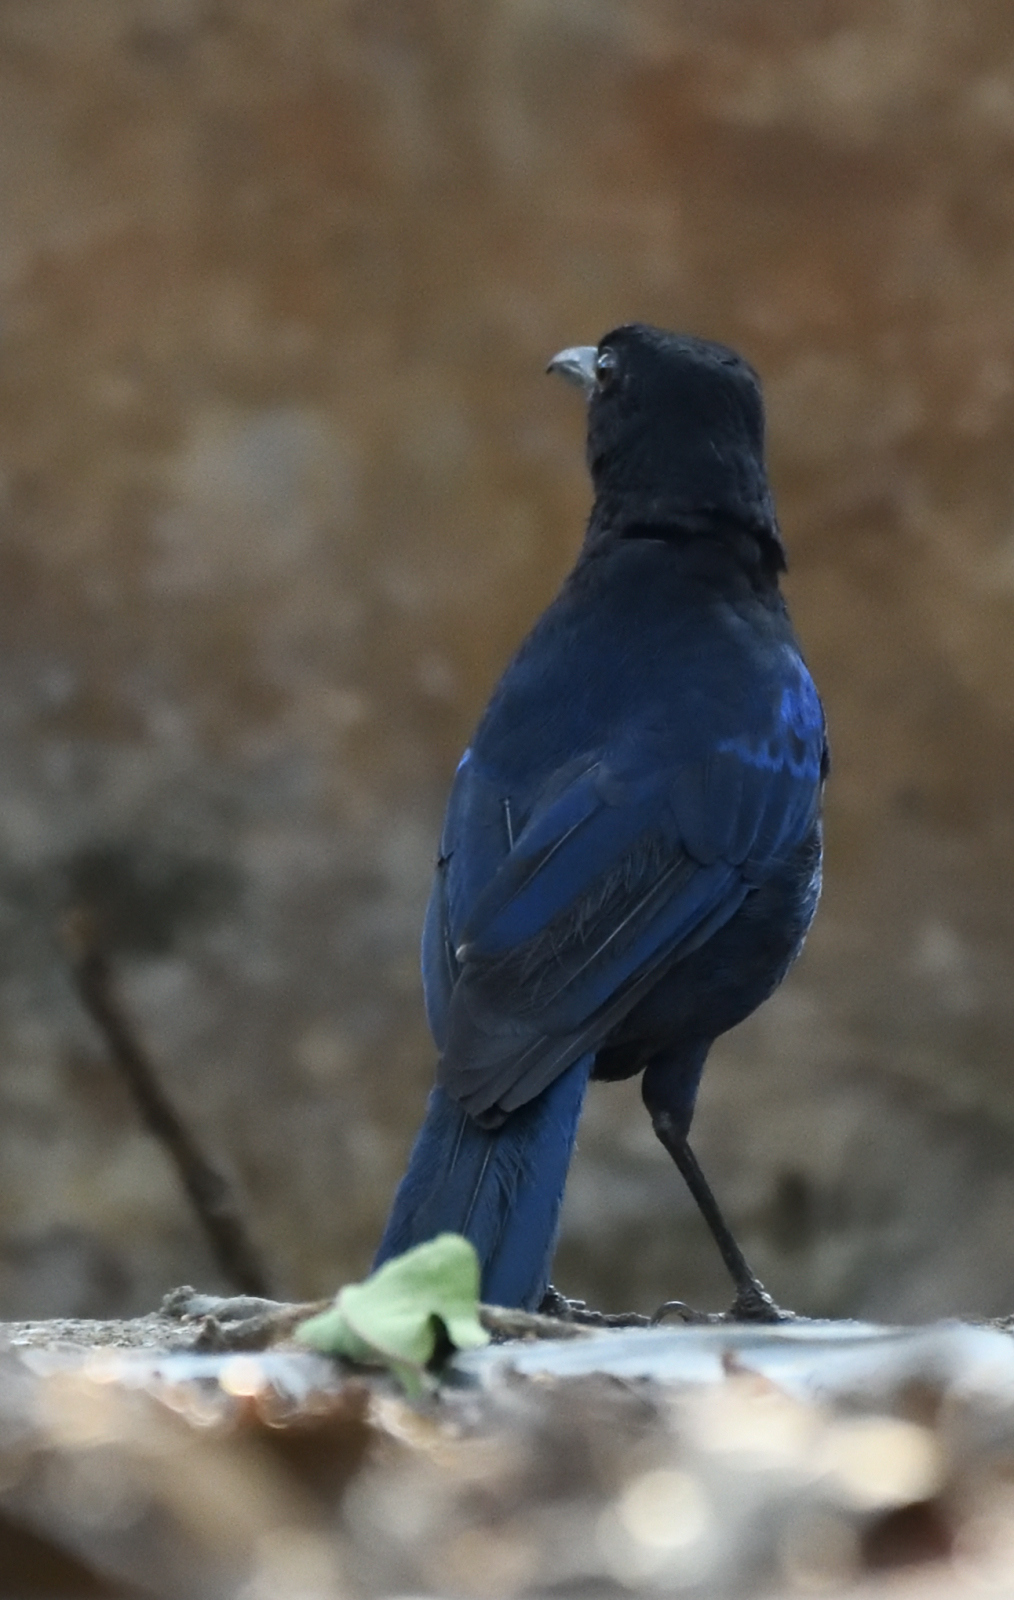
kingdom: Animalia
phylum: Chordata
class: Aves
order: Passeriformes
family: Muscicapidae
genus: Myophonus
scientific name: Myophonus horsfieldii
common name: Malabar whistling-thrush
